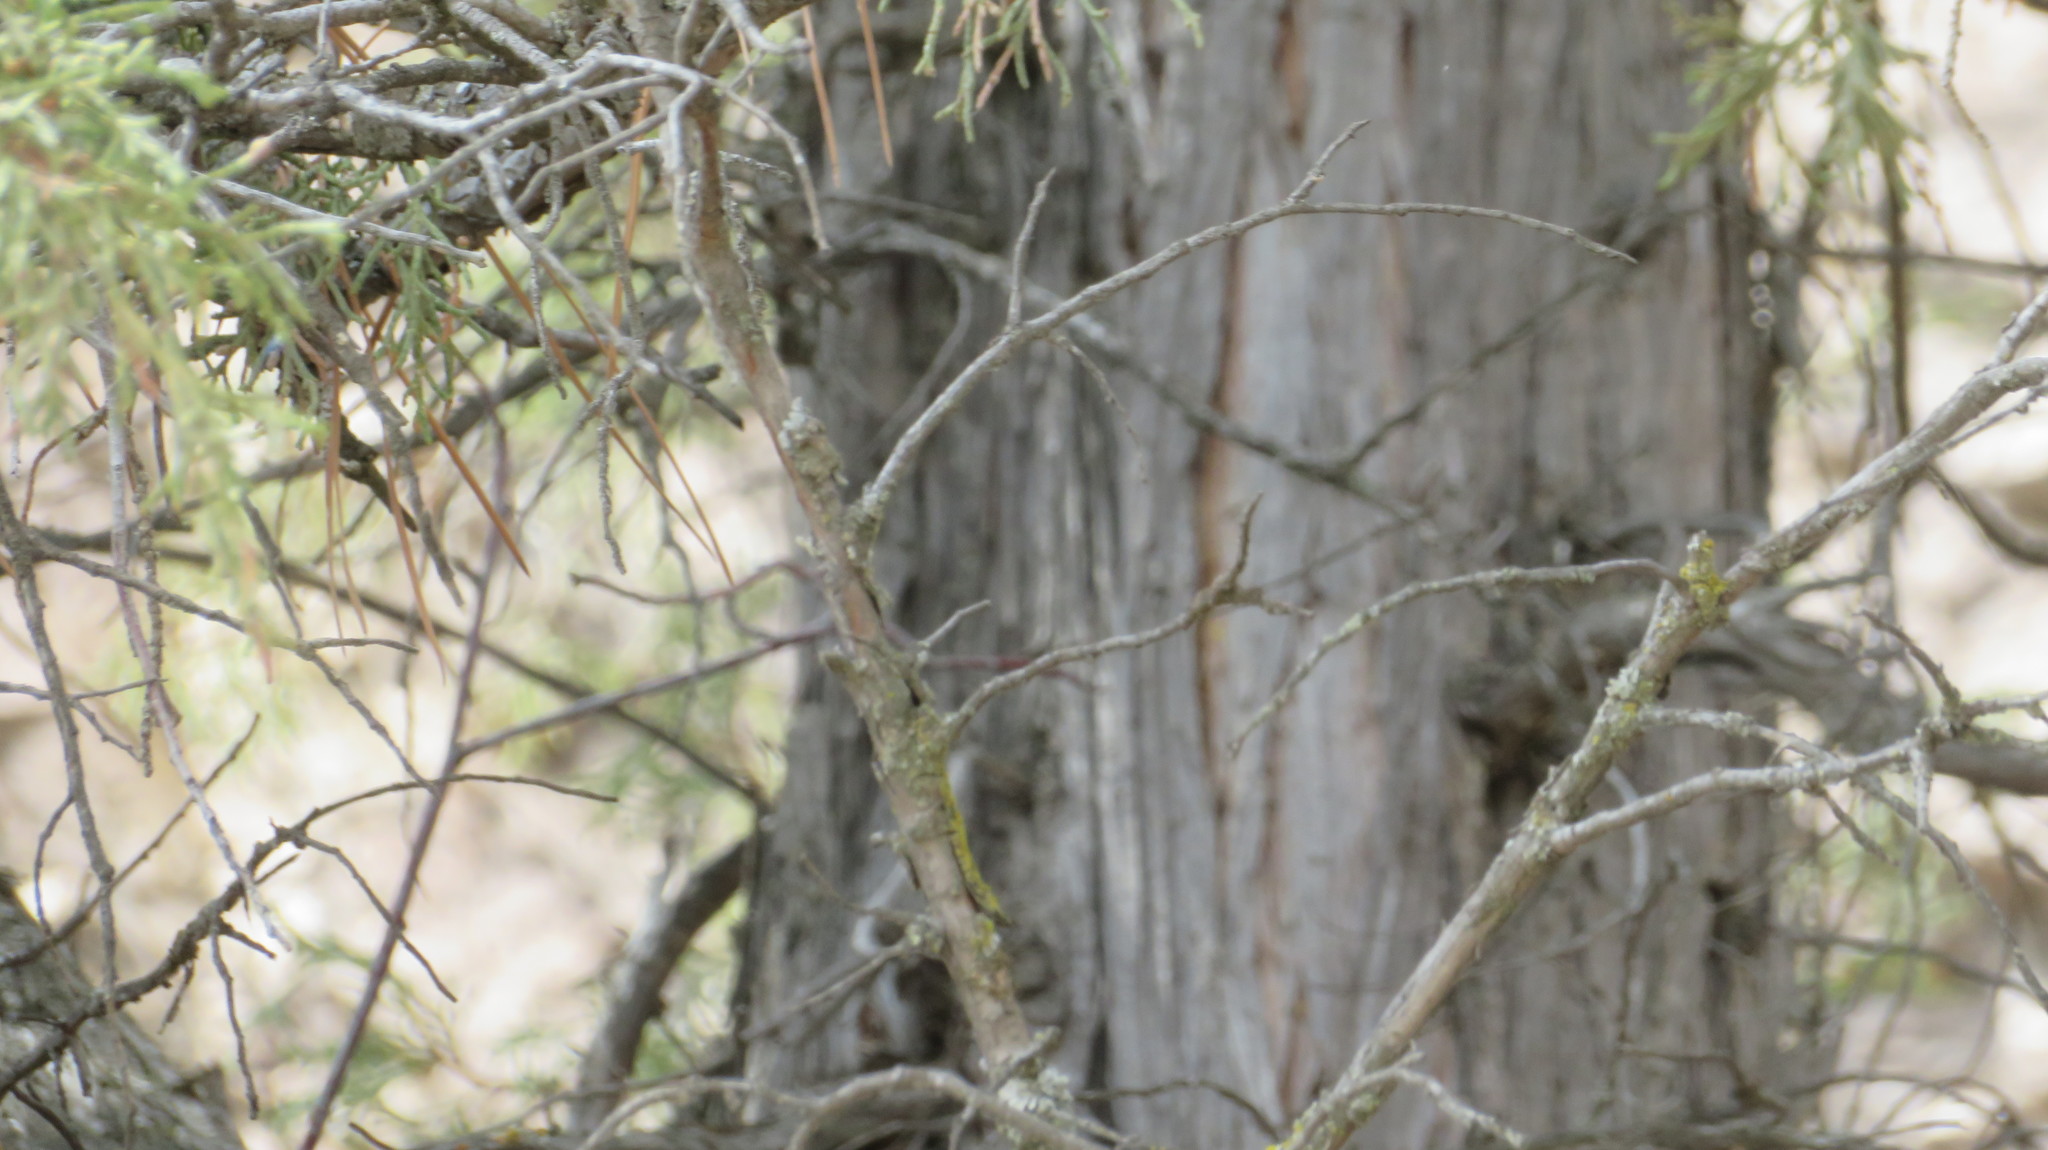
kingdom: Plantae
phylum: Tracheophyta
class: Pinopsida
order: Pinales
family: Cupressaceae
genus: Juniperus
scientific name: Juniperus scopulorum
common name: Rocky mountain juniper
